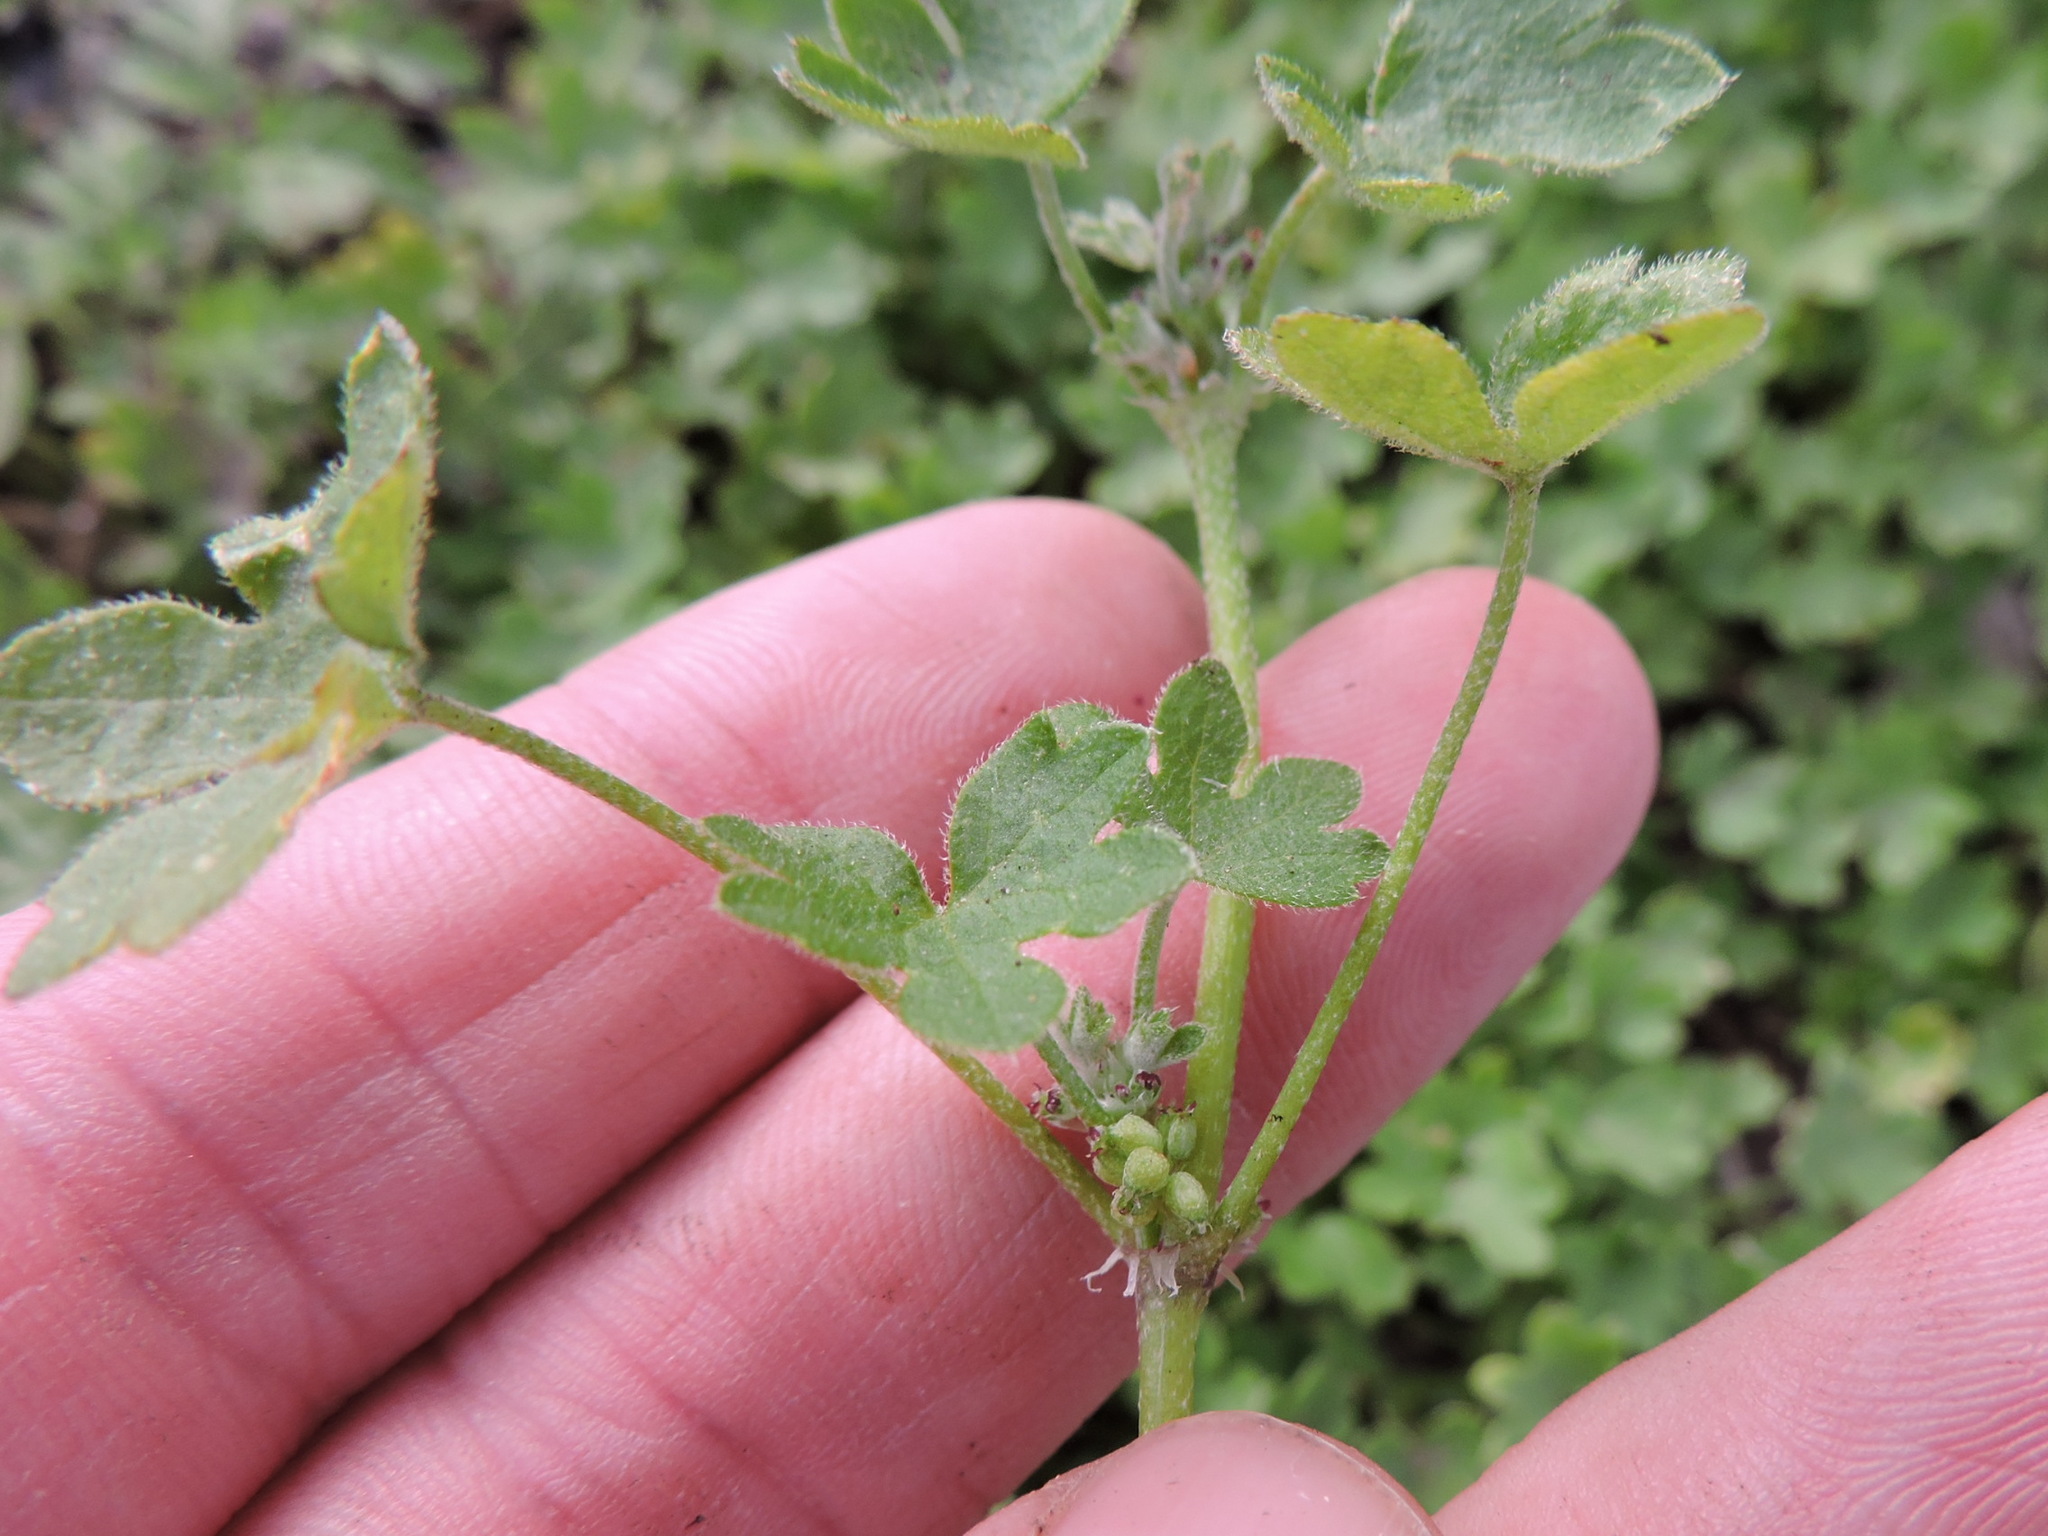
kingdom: Plantae
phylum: Tracheophyta
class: Magnoliopsida
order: Apiales
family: Apiaceae
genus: Bowlesia
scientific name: Bowlesia incana
